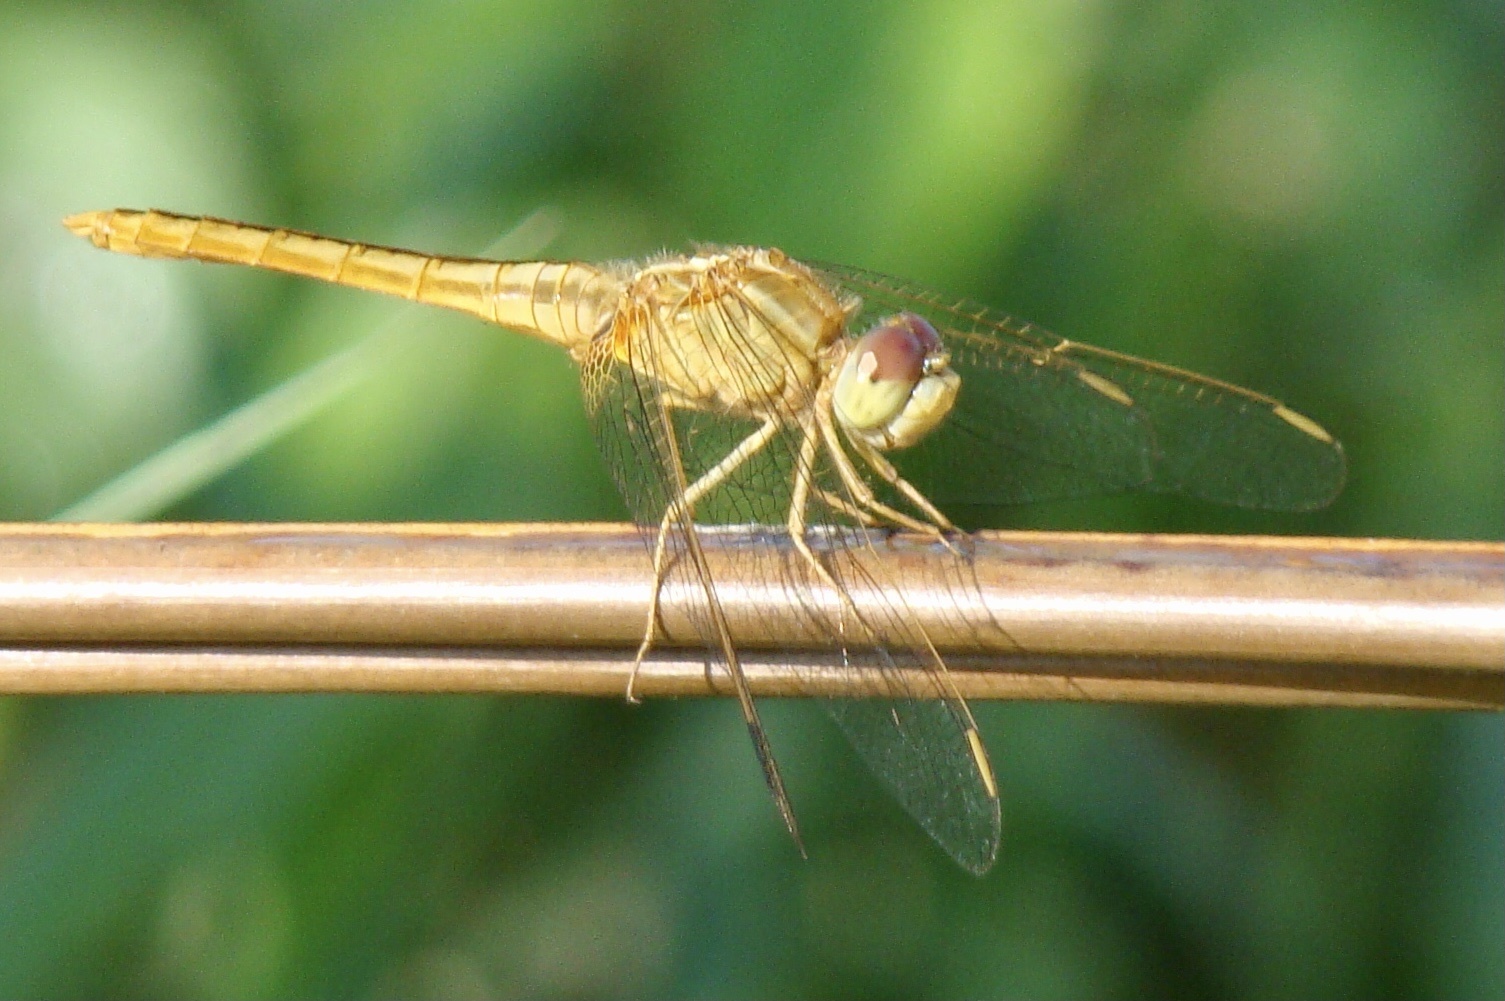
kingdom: Animalia
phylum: Arthropoda
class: Insecta
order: Odonata
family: Libellulidae
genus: Crocothemis
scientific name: Crocothemis servilia
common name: Scarlet skimmer
